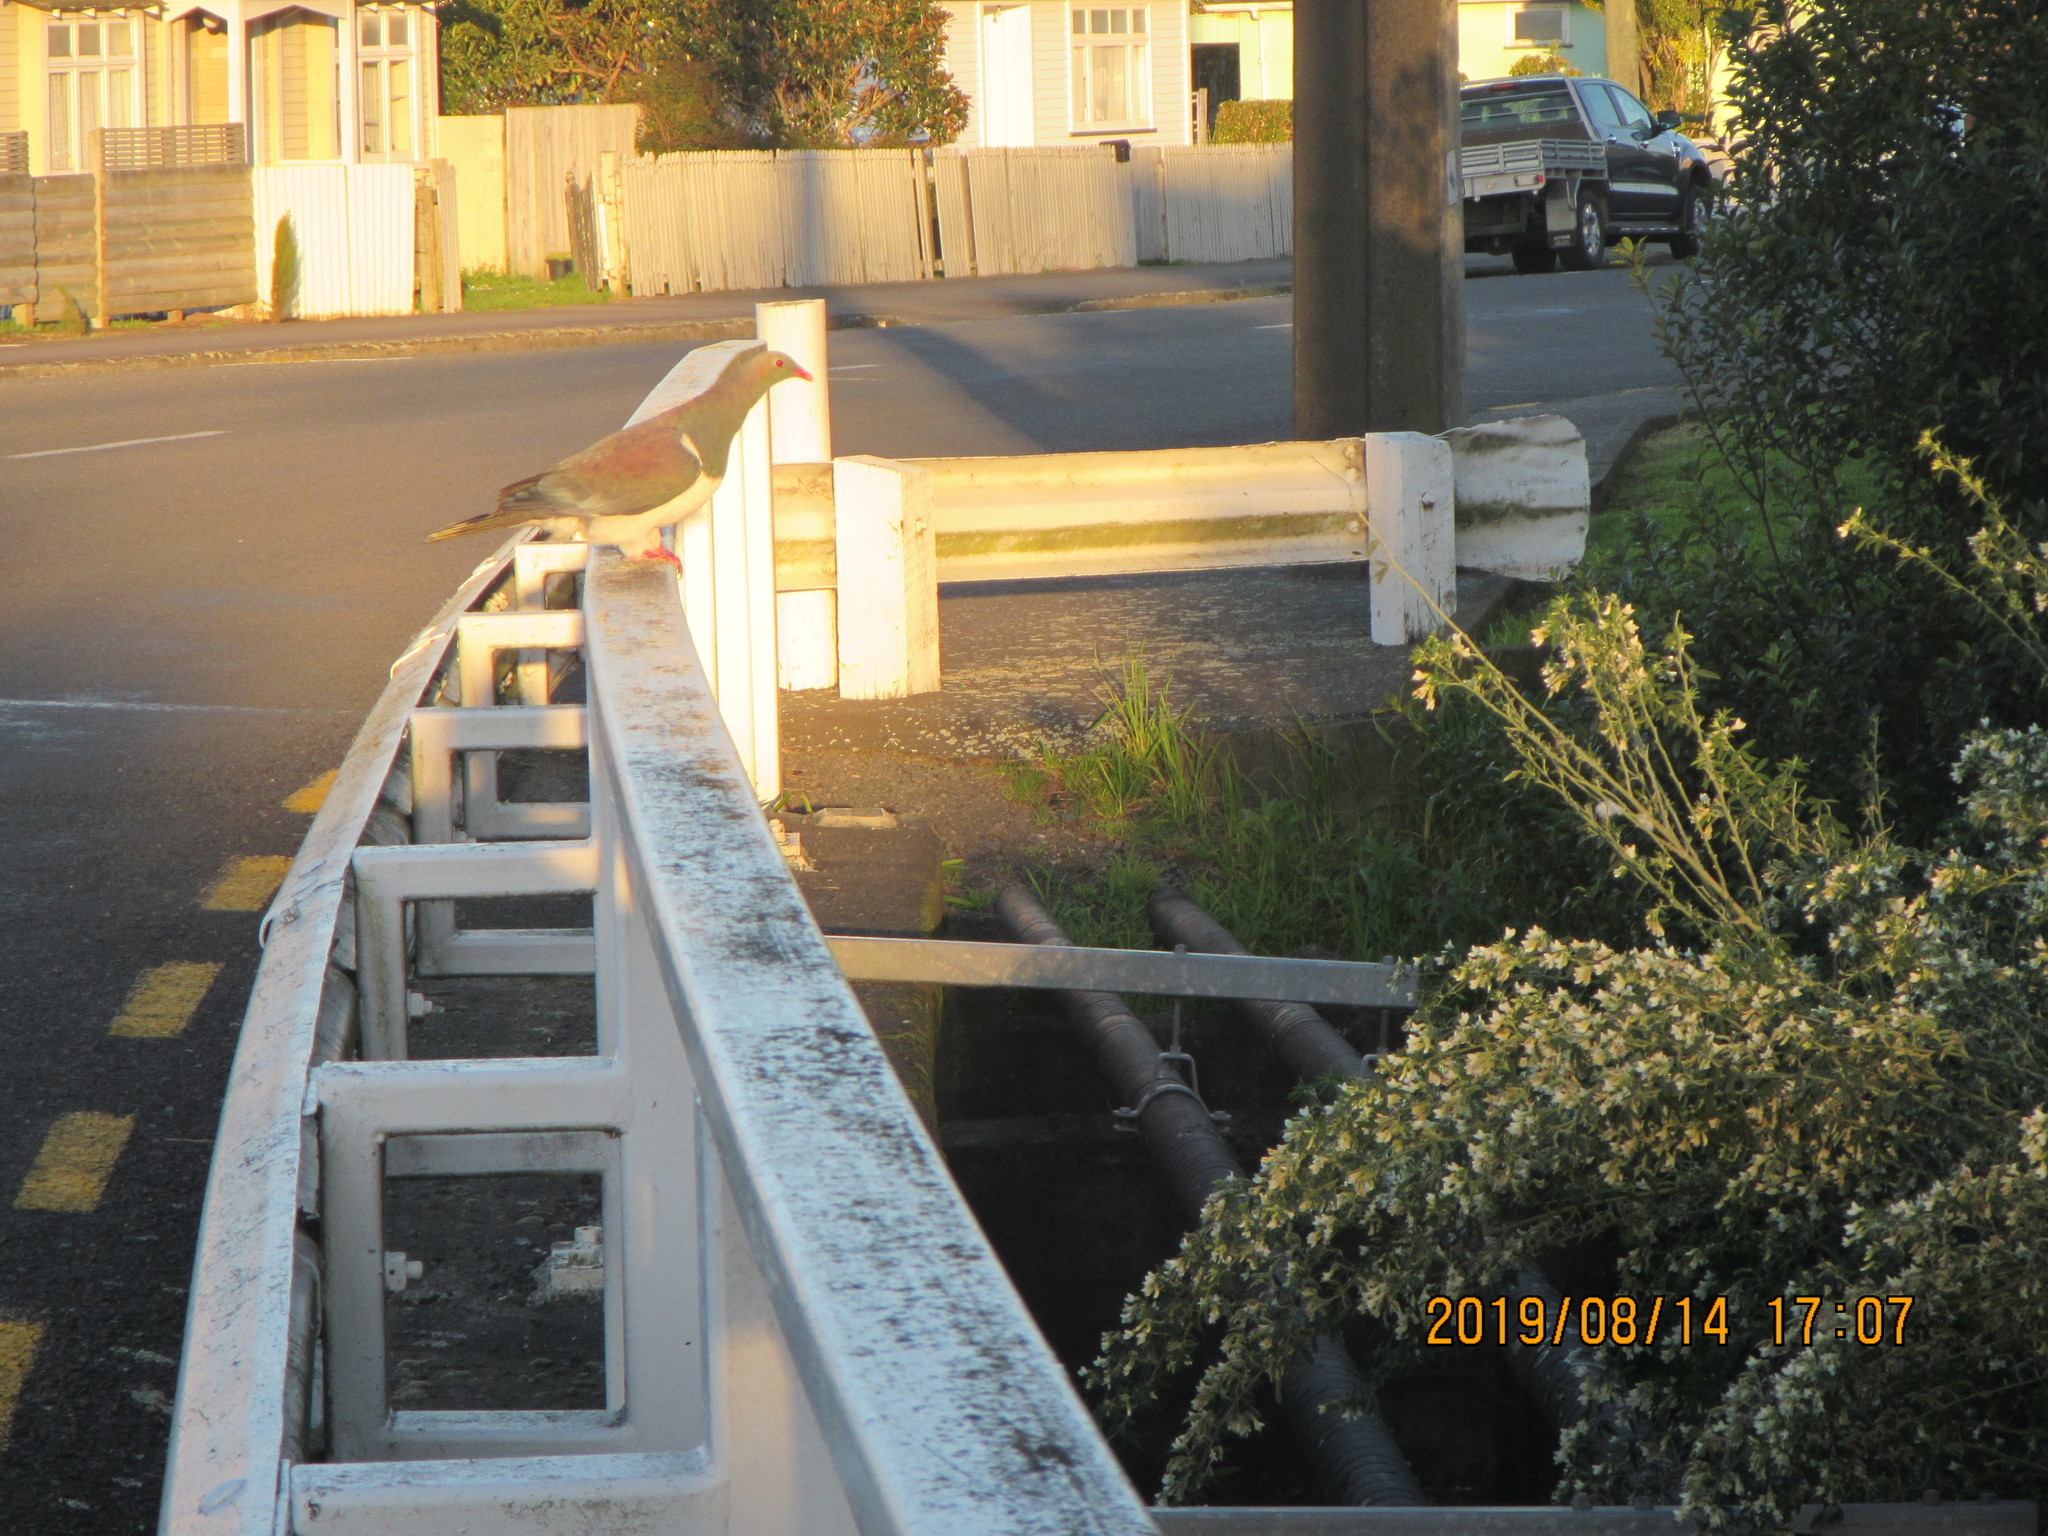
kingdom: Animalia
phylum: Chordata
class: Aves
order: Columbiformes
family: Columbidae
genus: Hemiphaga
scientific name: Hemiphaga novaeseelandiae
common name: New zealand pigeon
